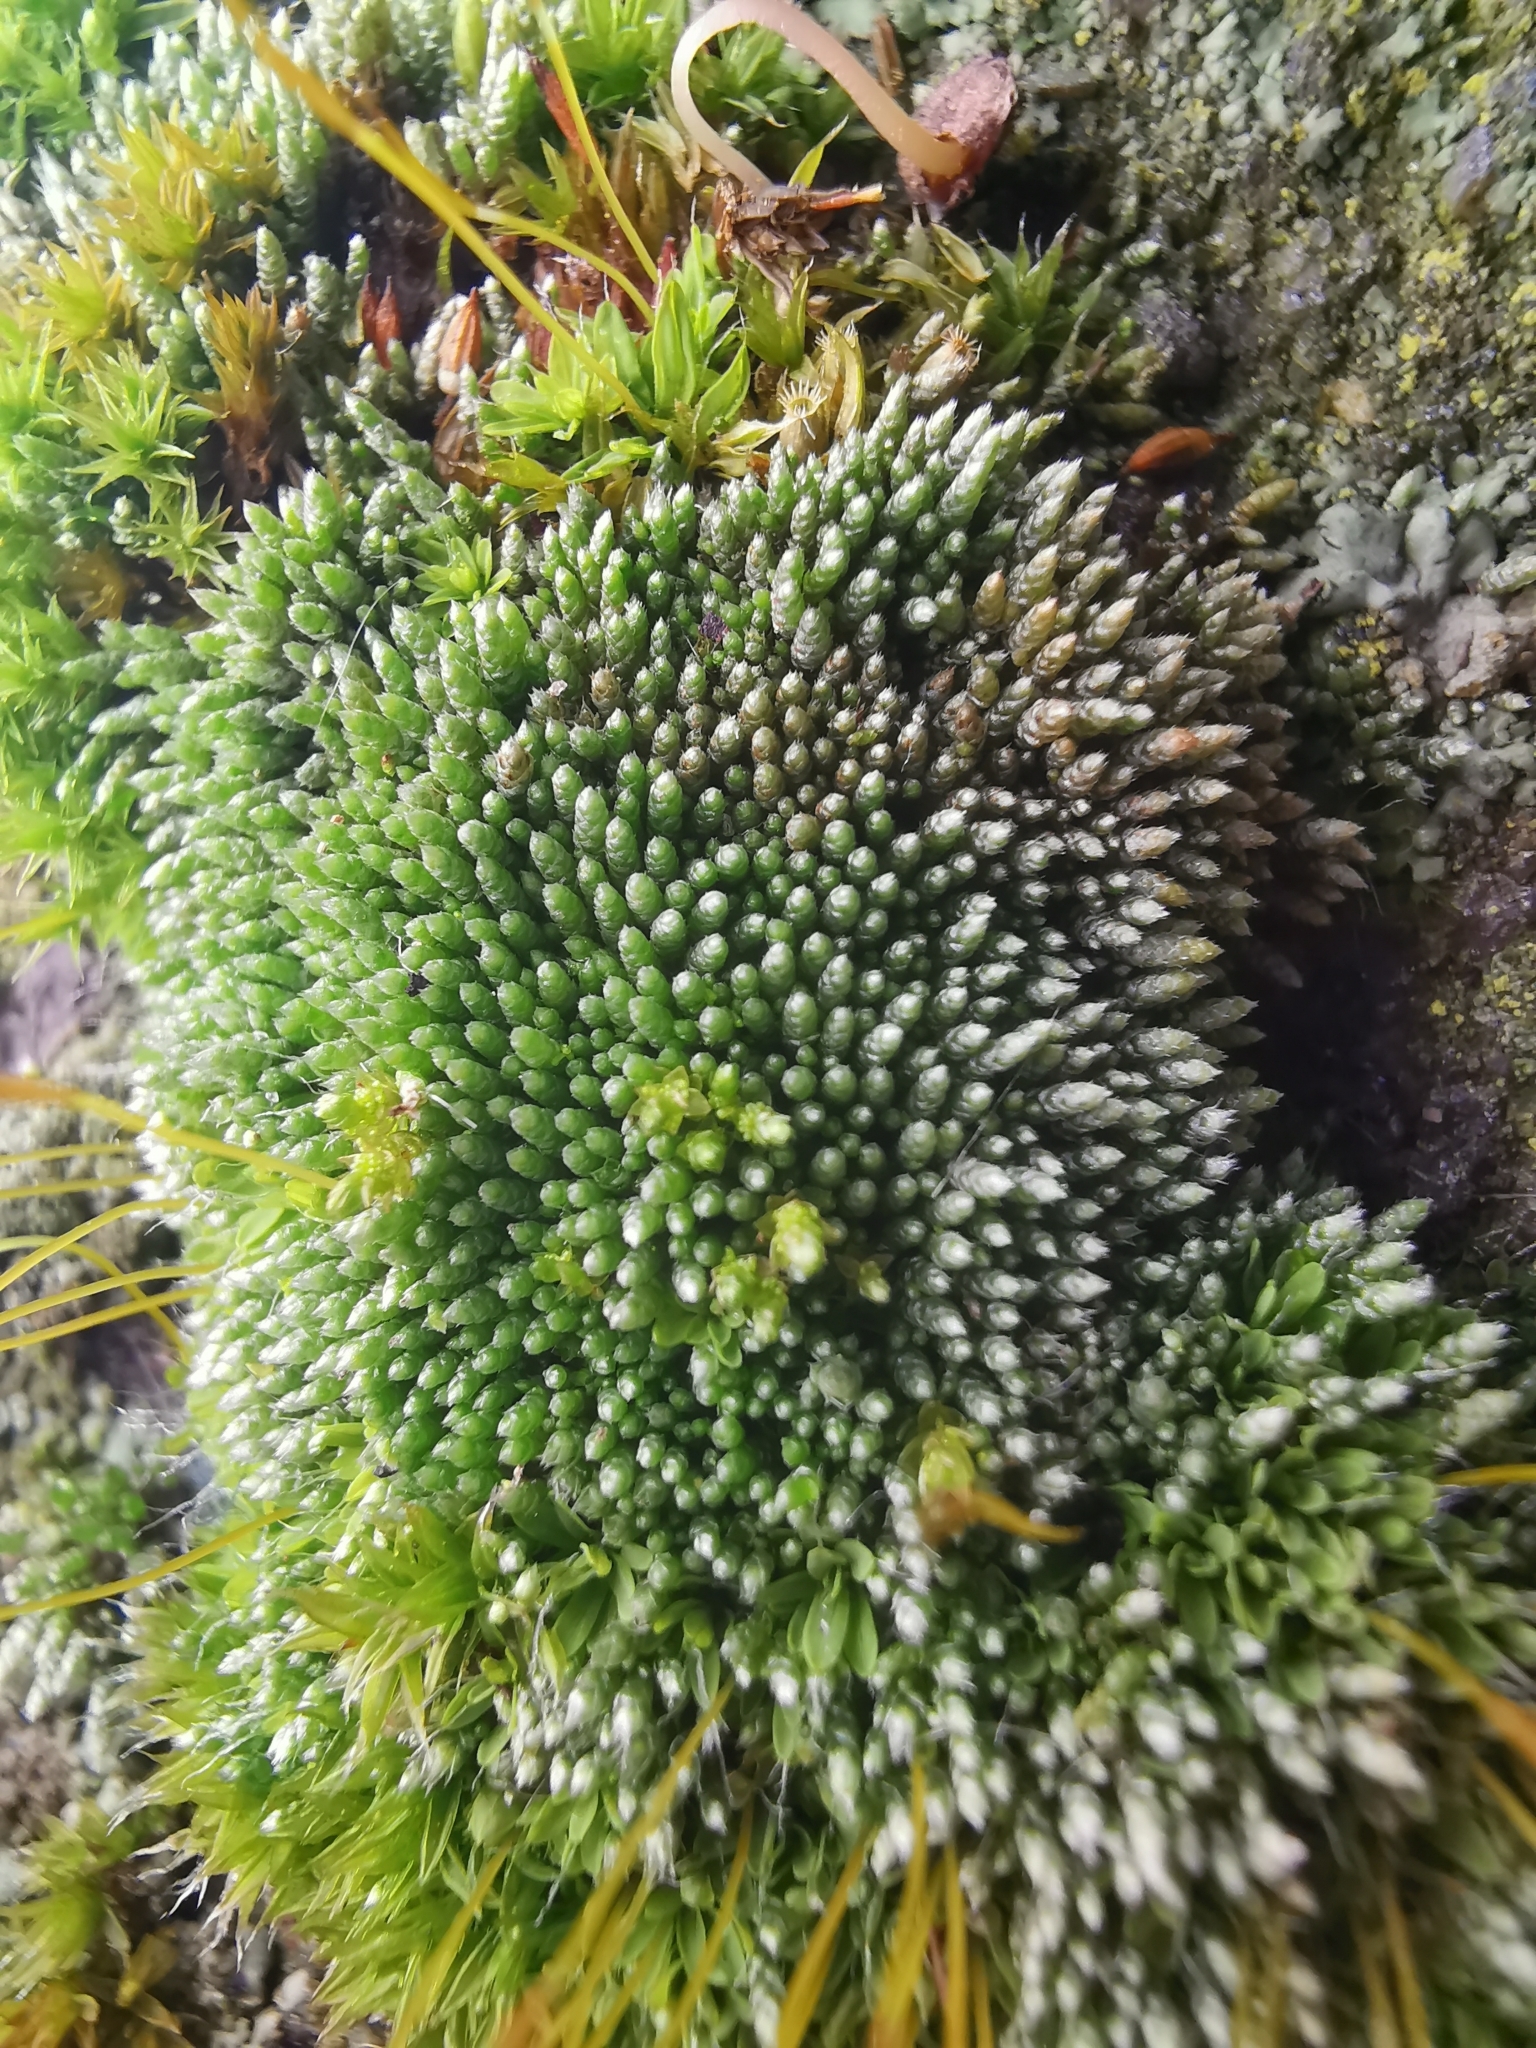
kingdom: Plantae
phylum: Bryophyta
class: Bryopsida
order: Bryales
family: Bryaceae
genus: Bryum
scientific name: Bryum argenteum
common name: Silver-moss
